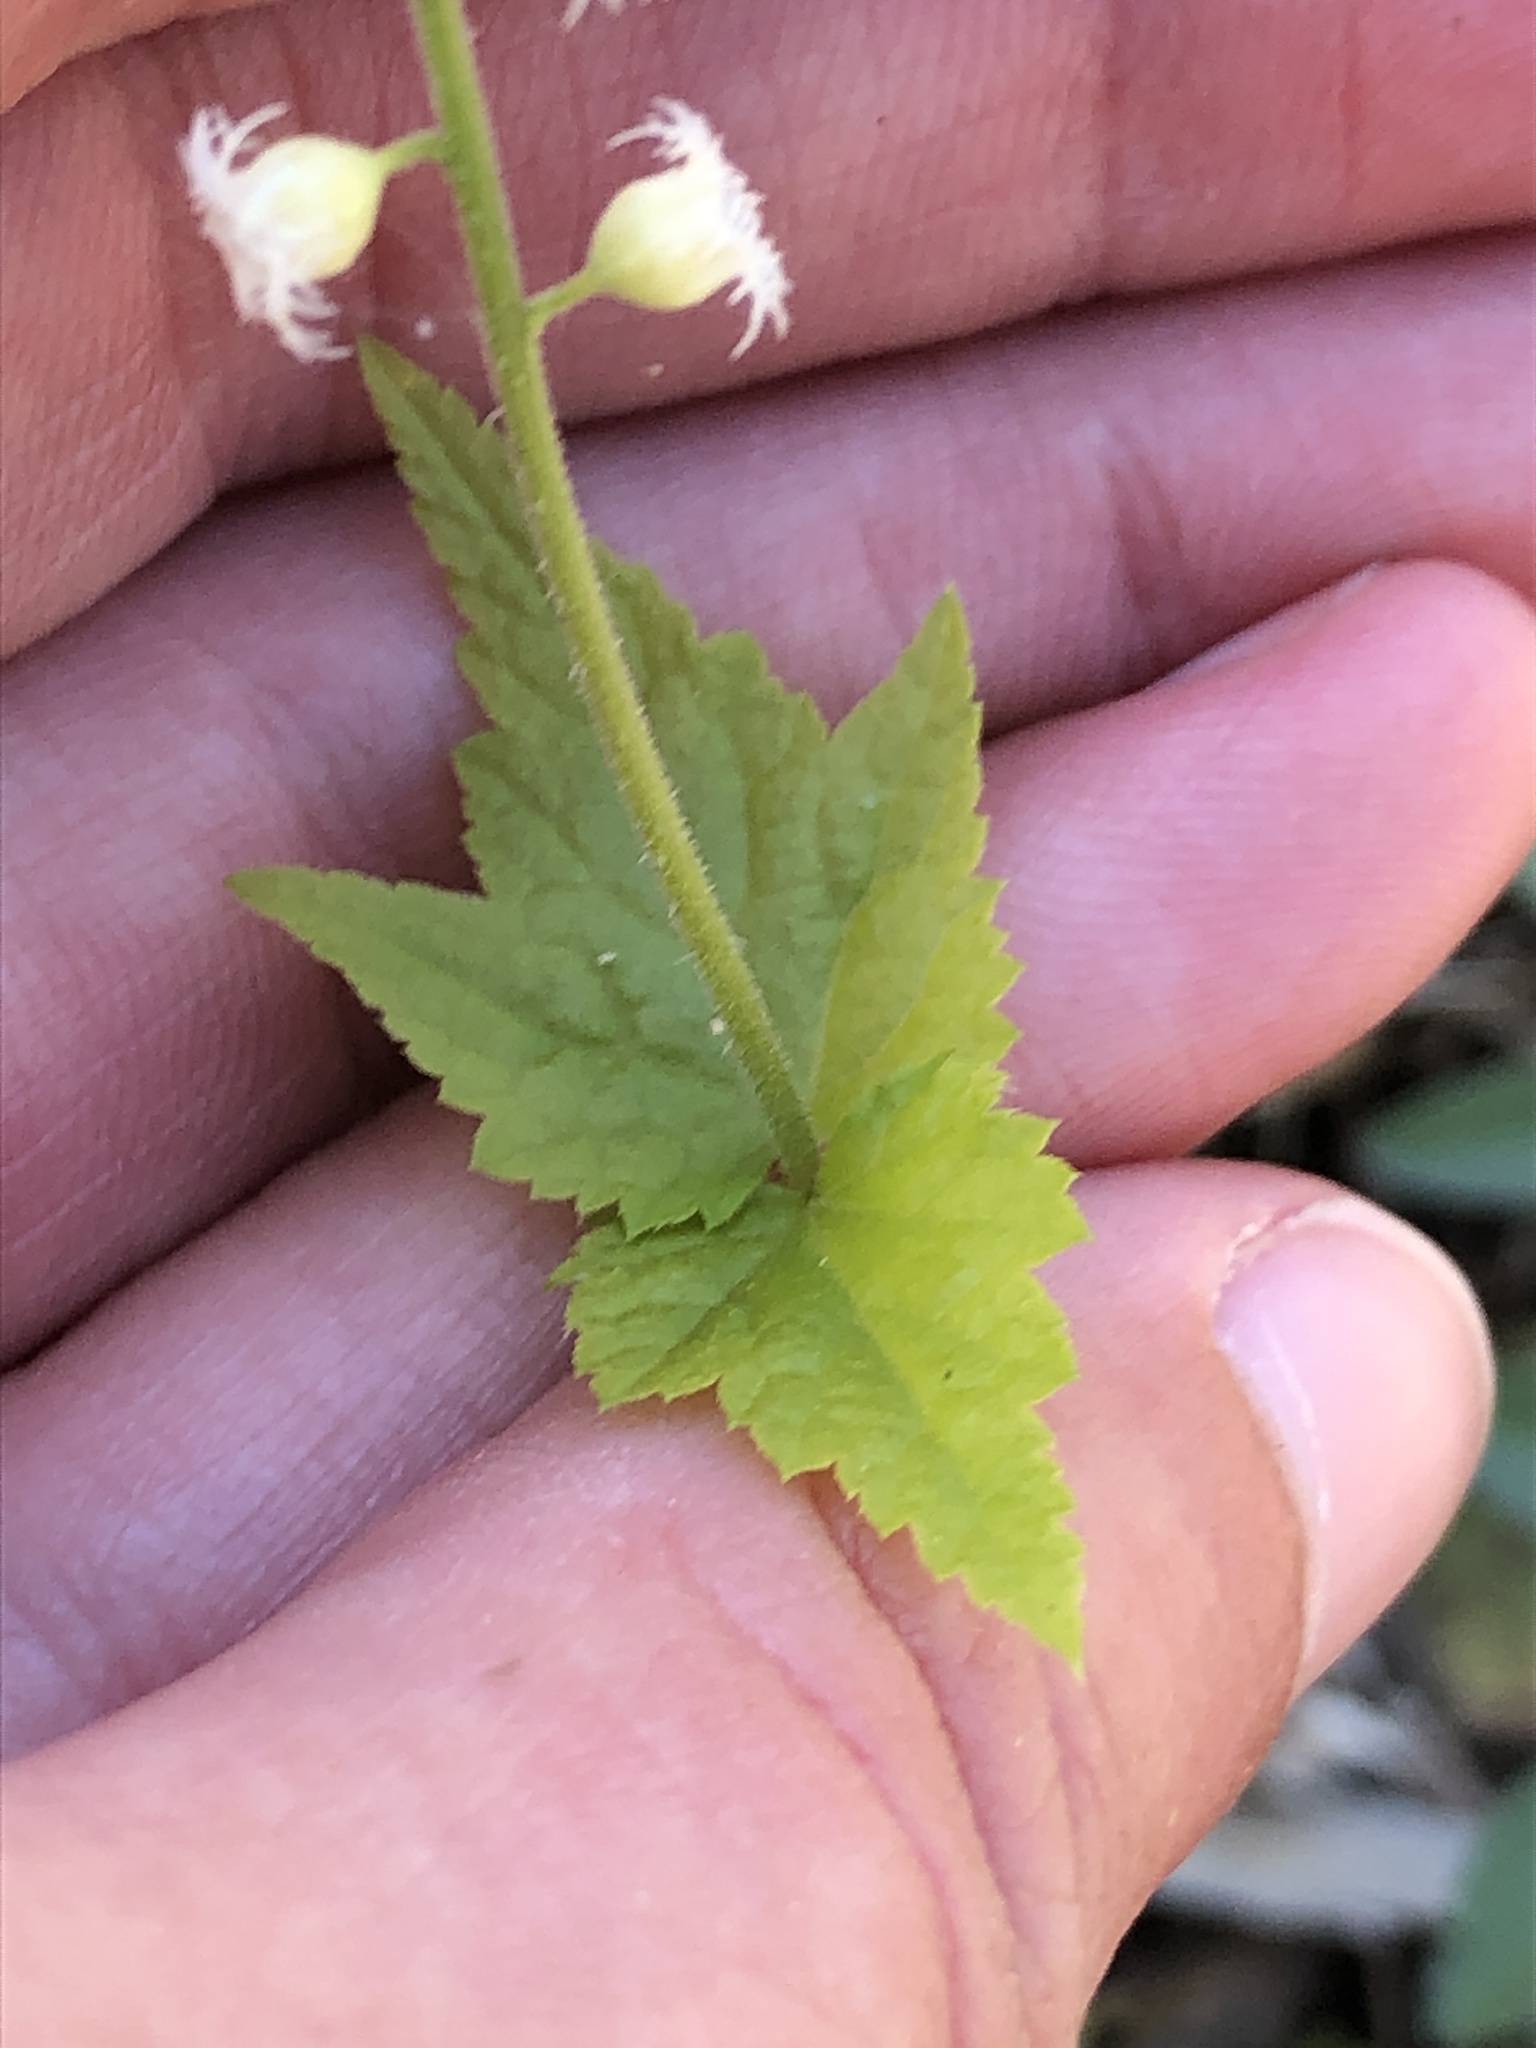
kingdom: Plantae
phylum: Tracheophyta
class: Magnoliopsida
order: Saxifragales
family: Saxifragaceae
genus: Mitella
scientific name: Mitella diphylla
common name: Coolwort
